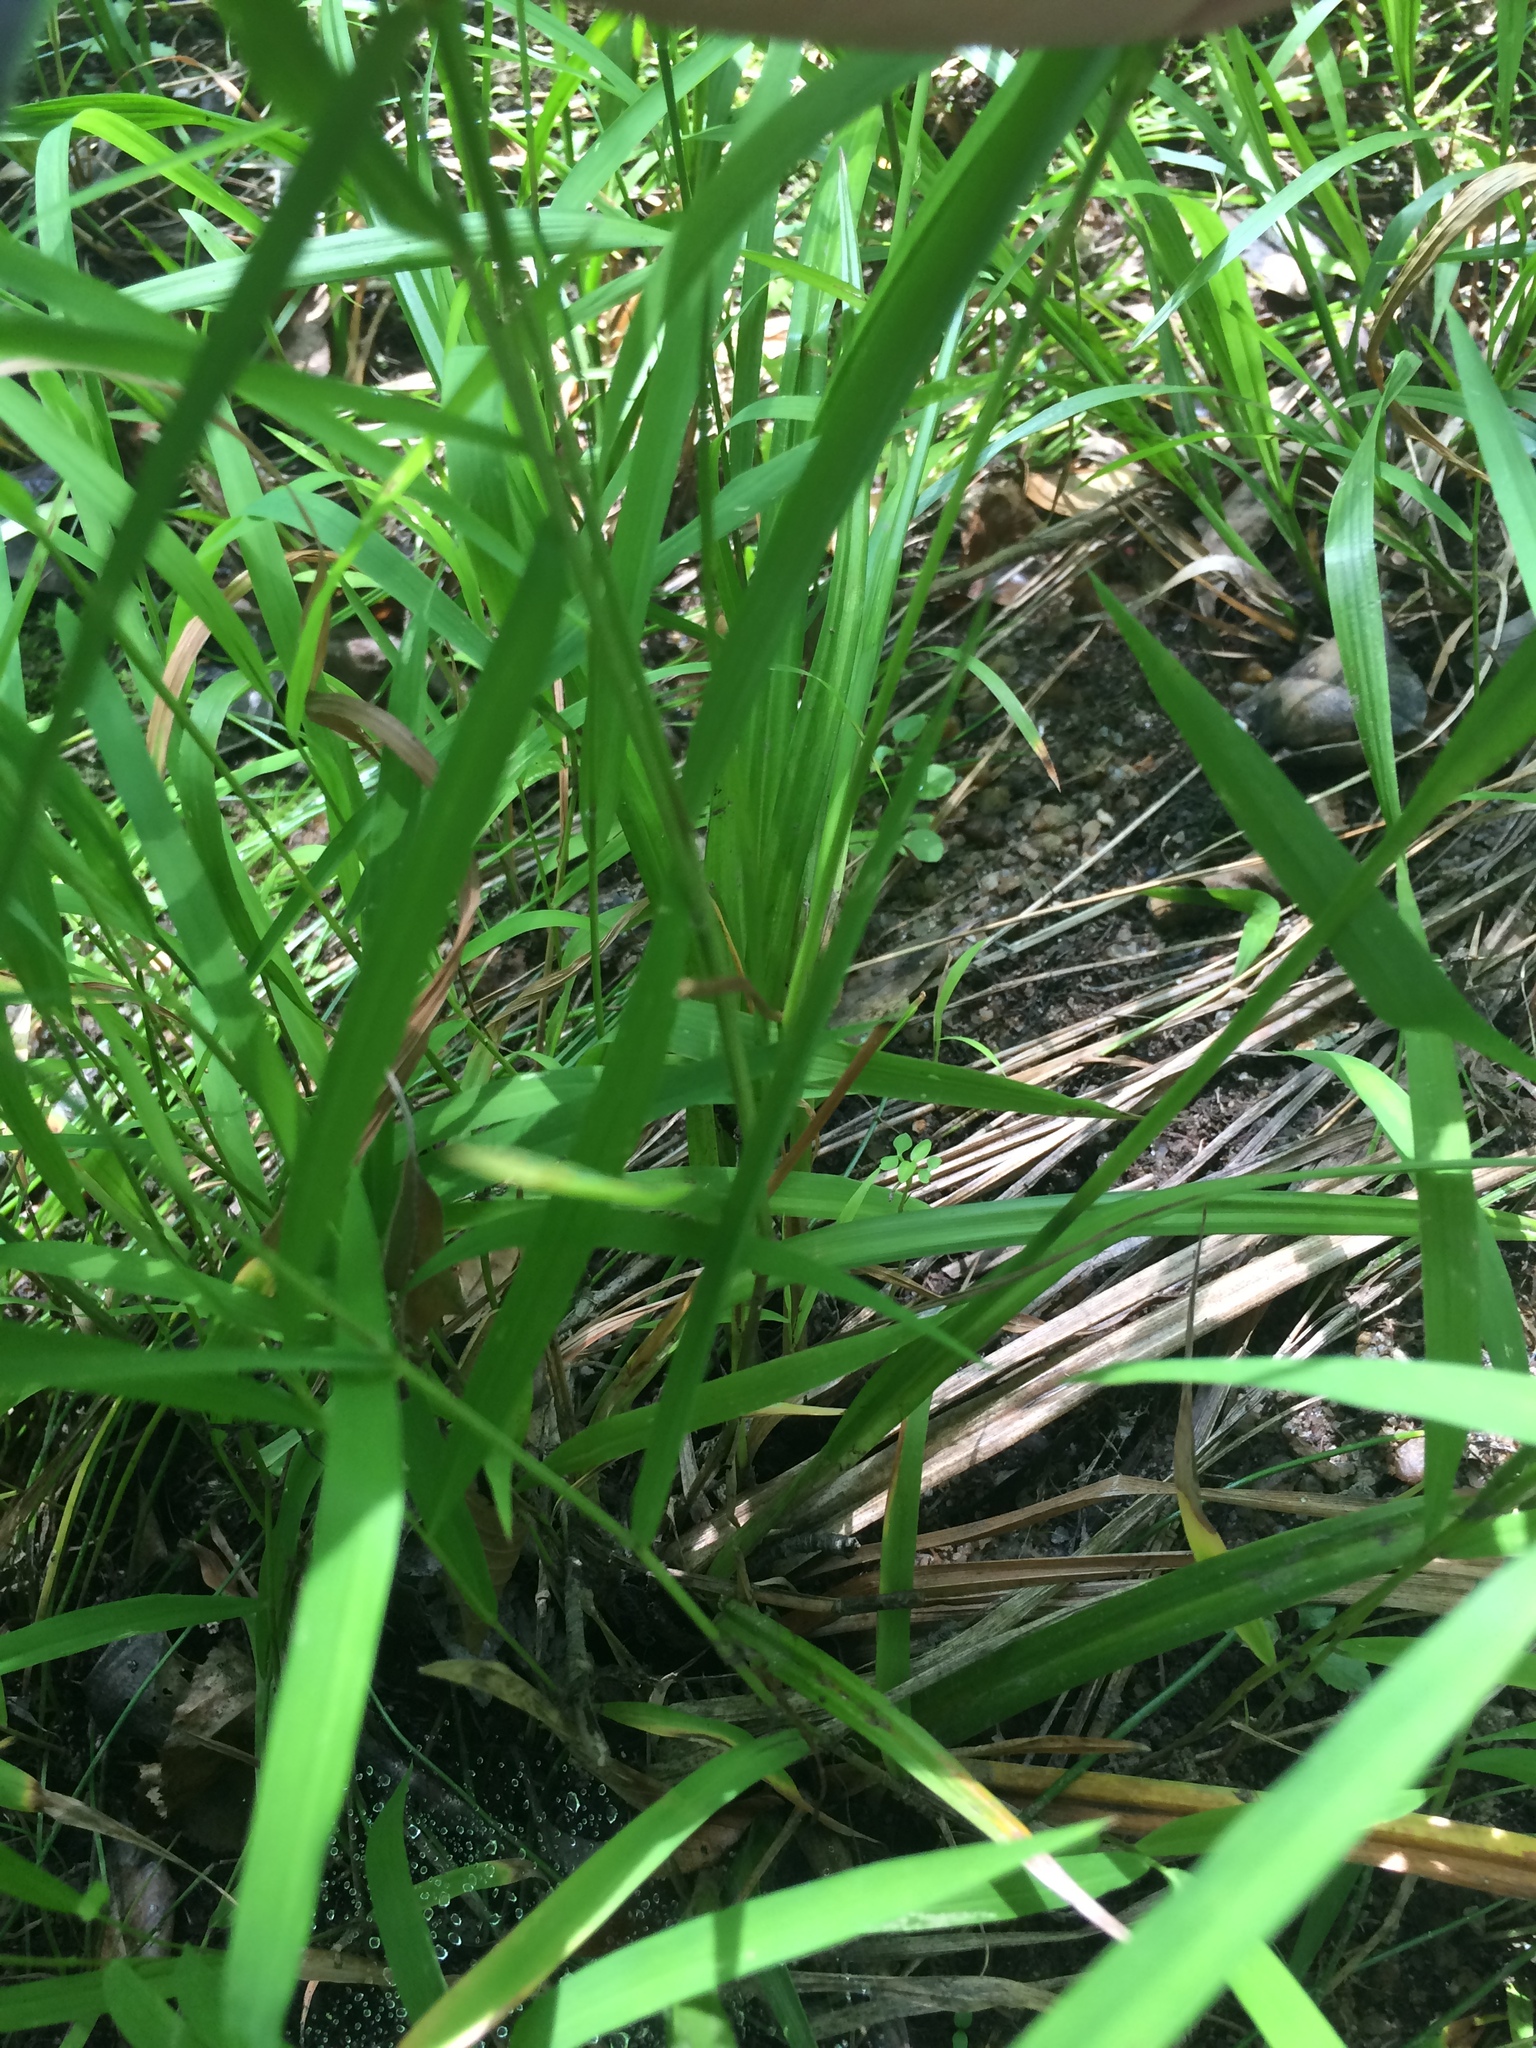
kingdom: Plantae
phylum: Tracheophyta
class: Liliopsida
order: Poales
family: Cyperaceae
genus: Carex
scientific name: Carex lonchocarpa
